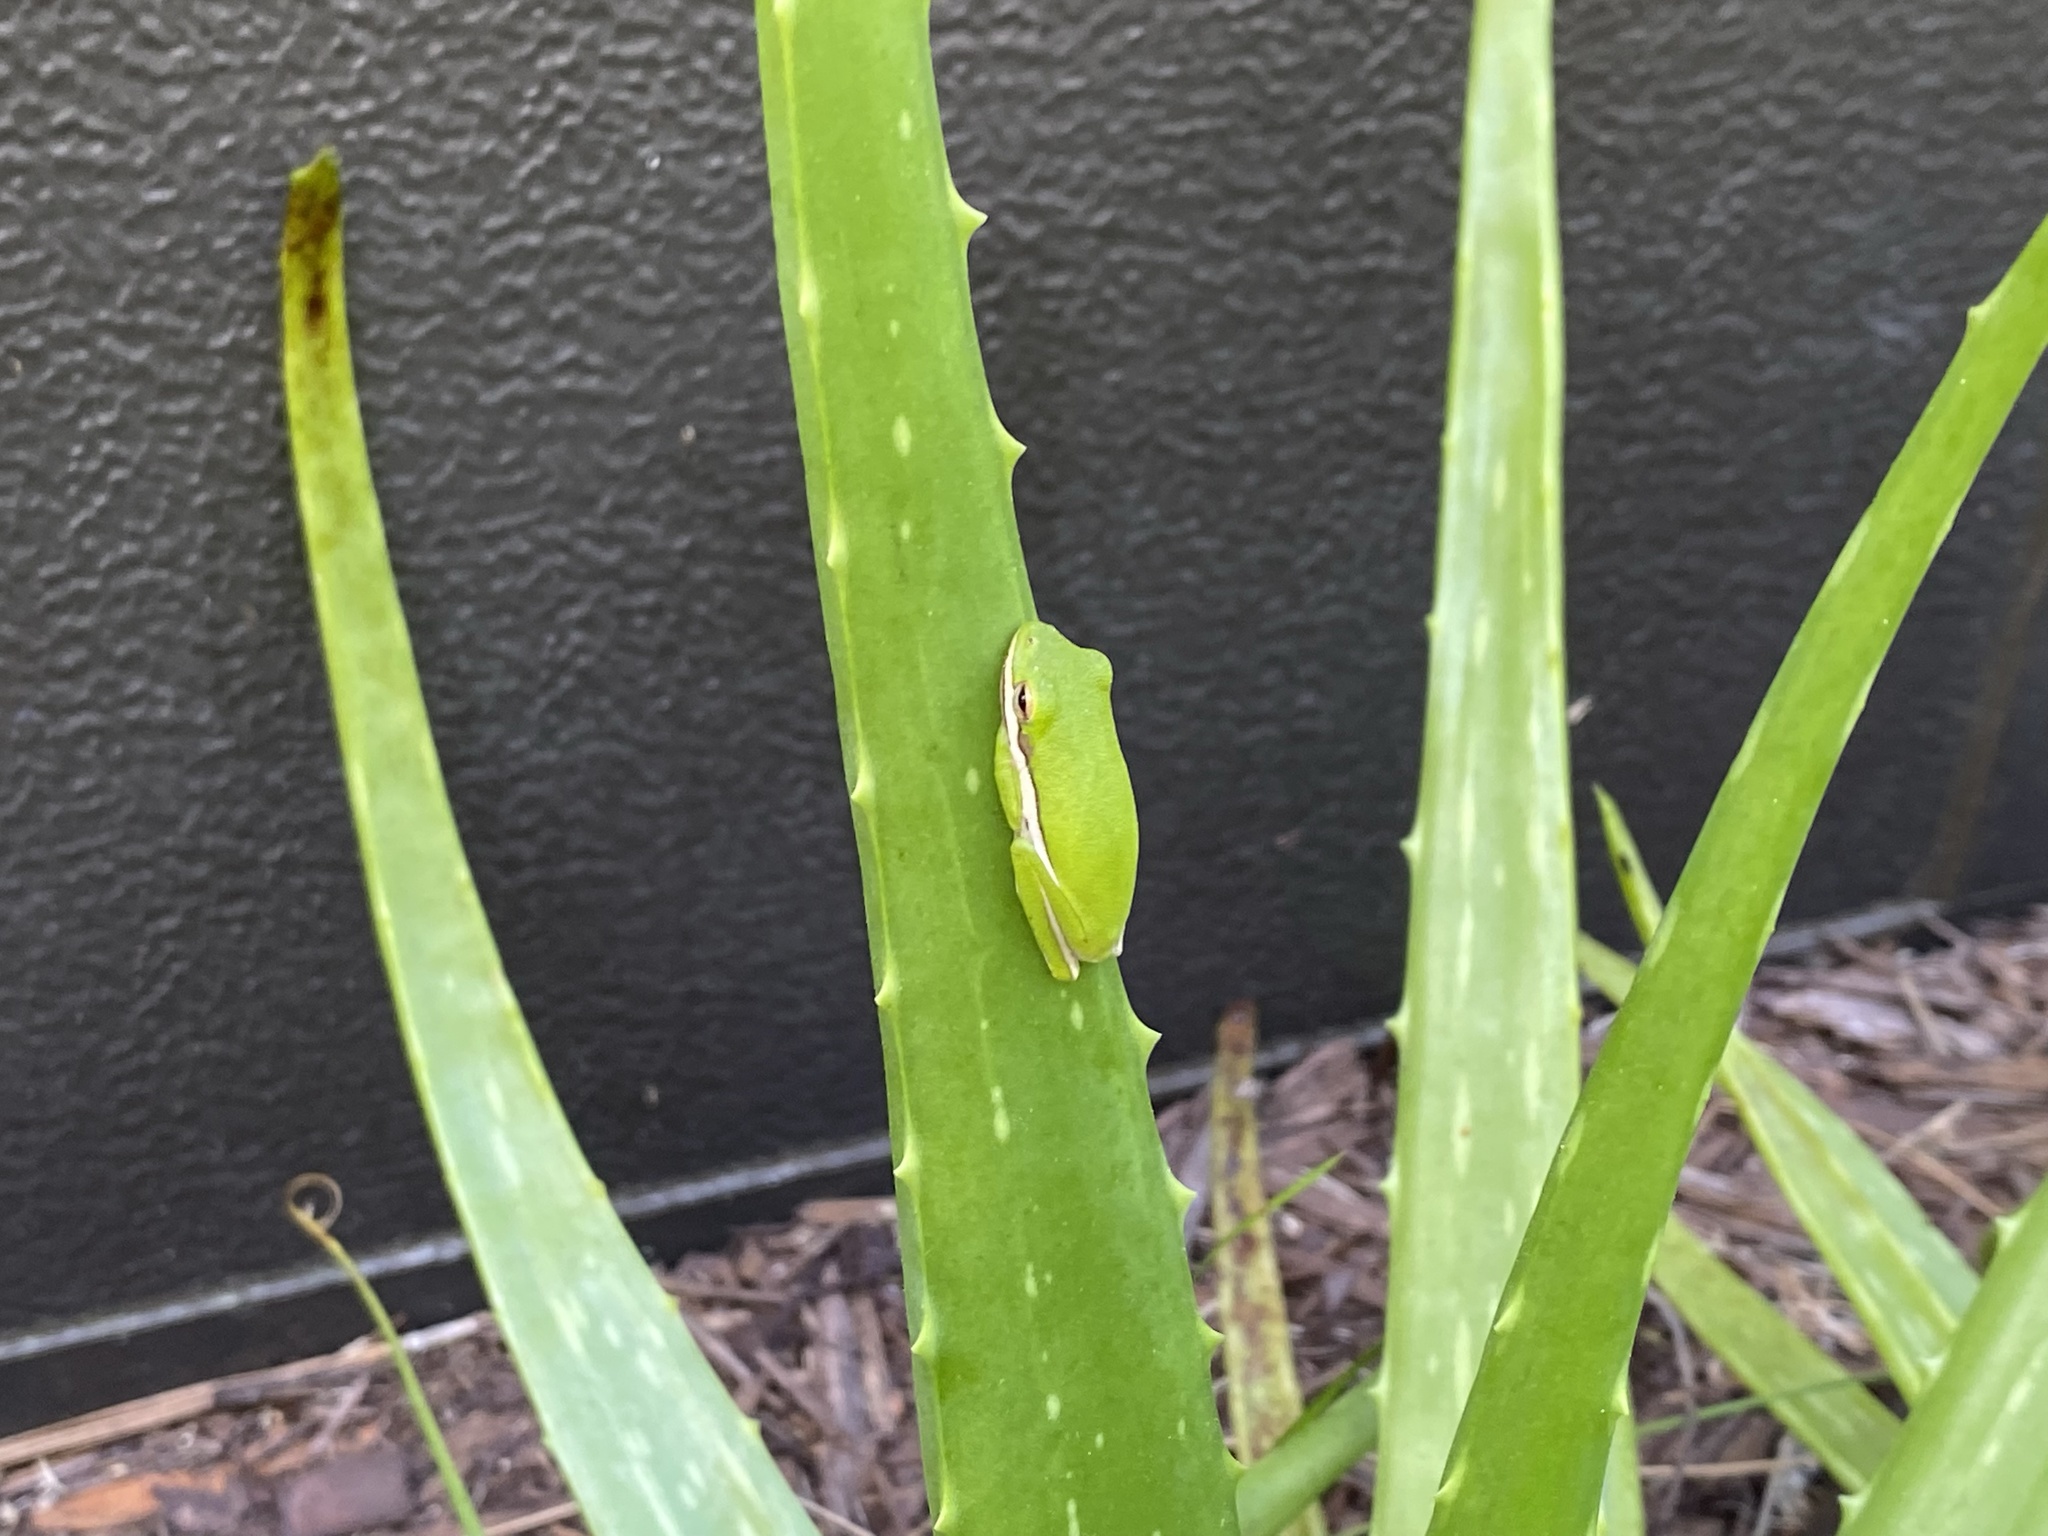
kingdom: Animalia
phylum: Chordata
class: Amphibia
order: Anura
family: Hylidae
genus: Dryophytes
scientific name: Dryophytes cinereus
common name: Green treefrog
